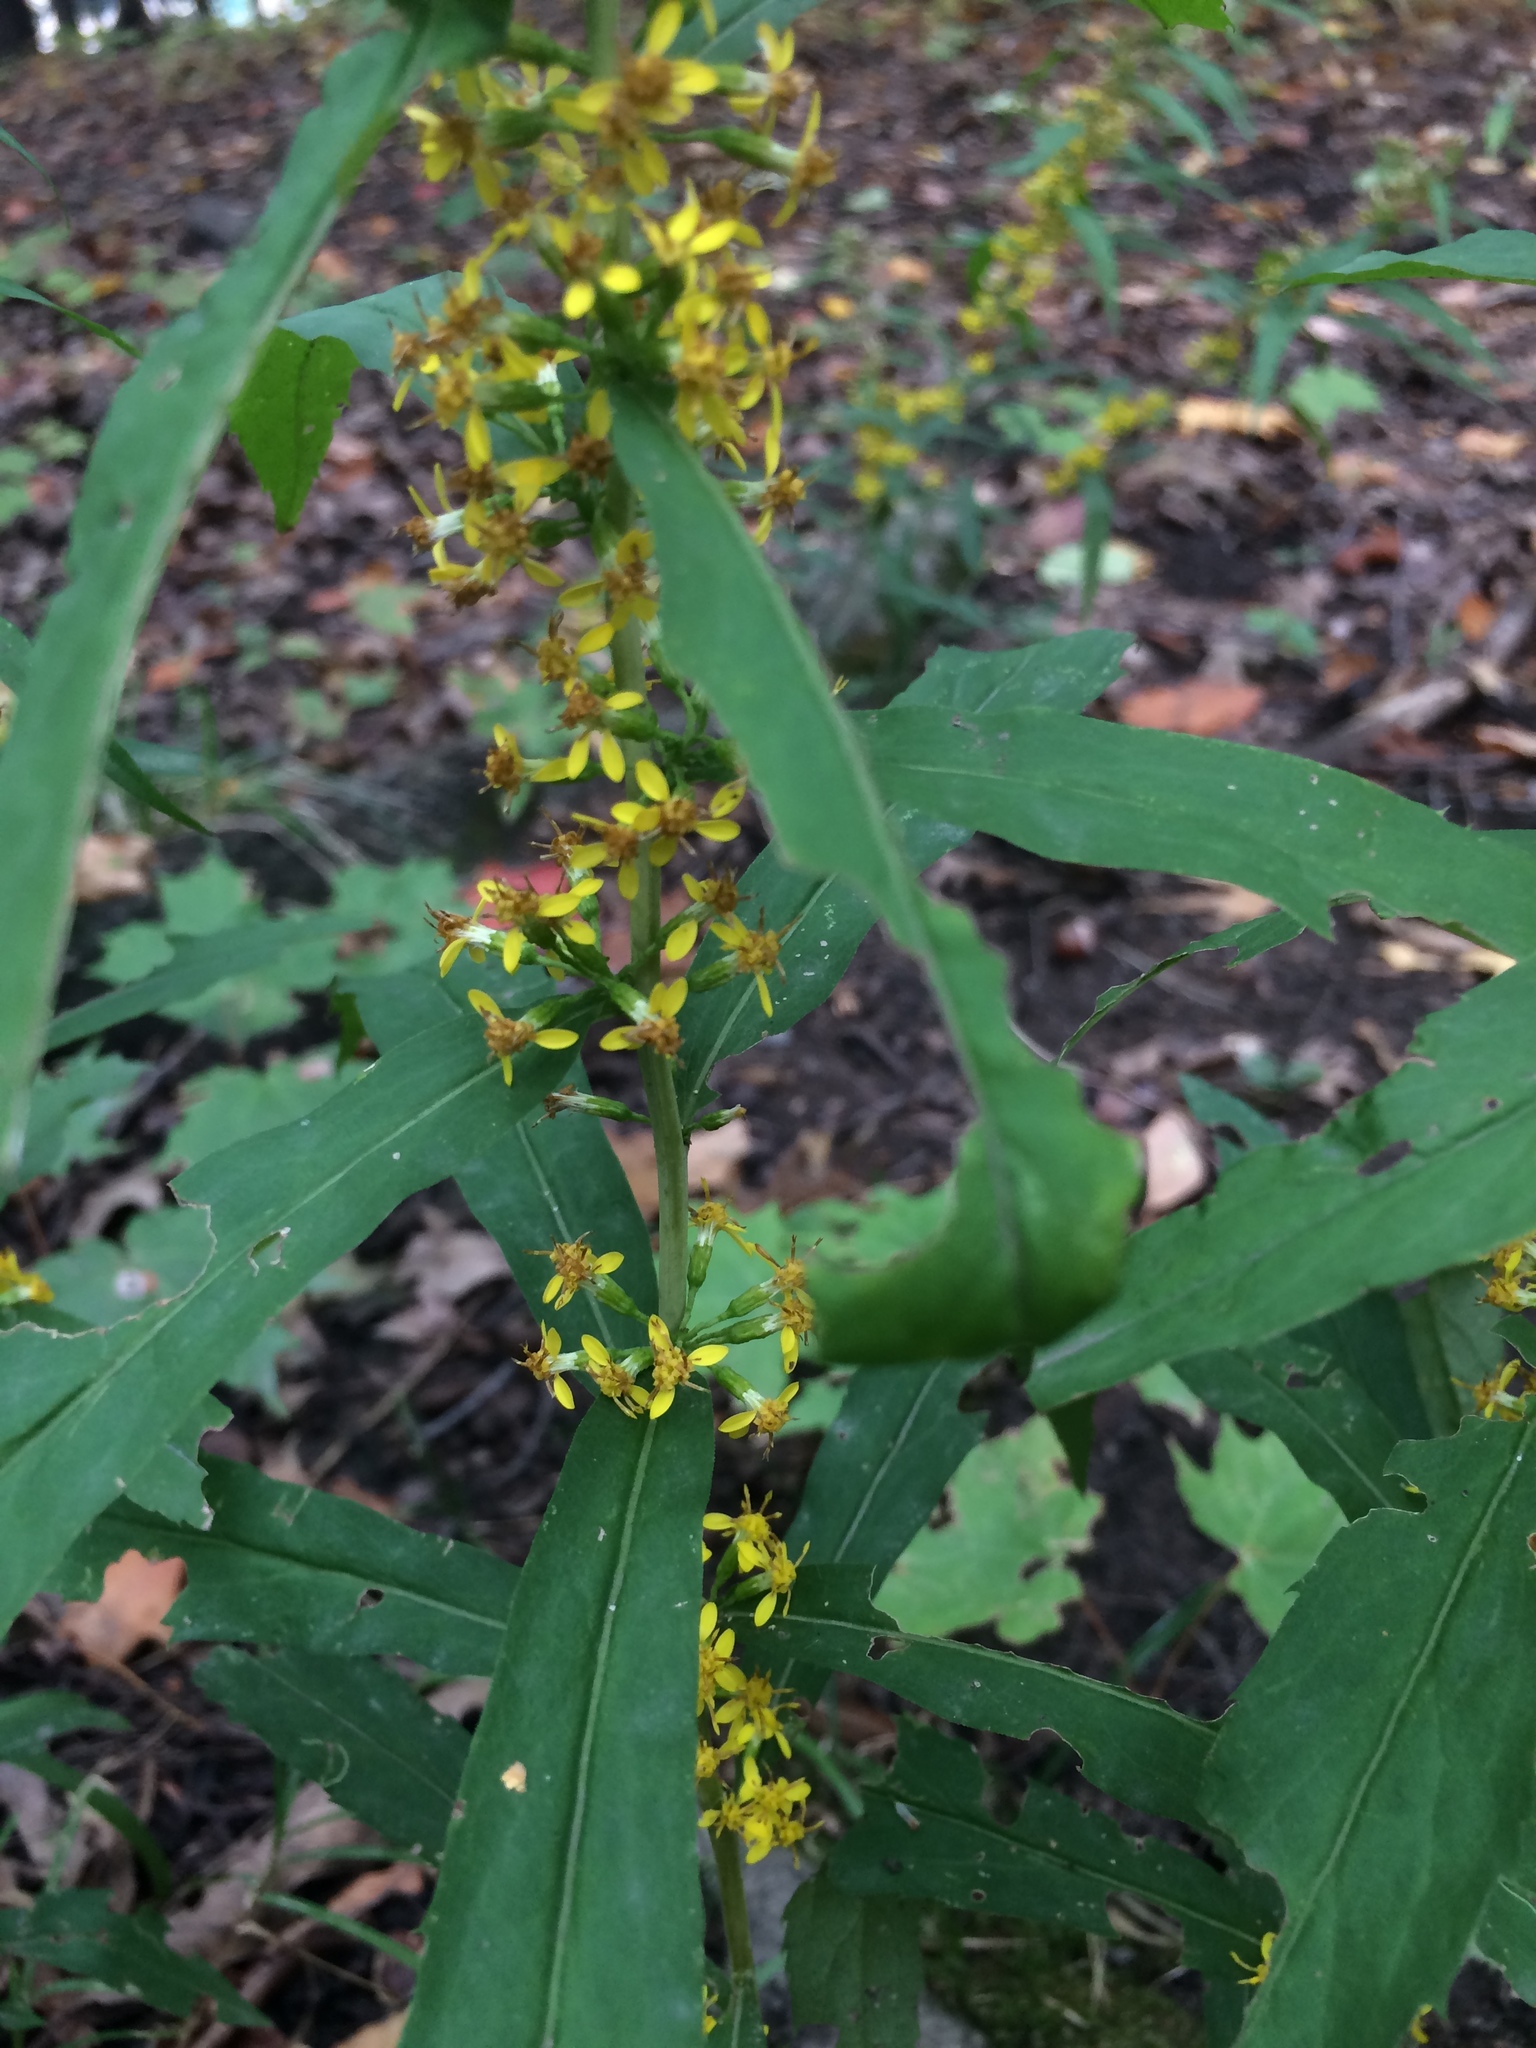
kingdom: Plantae
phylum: Tracheophyta
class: Magnoliopsida
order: Asterales
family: Asteraceae
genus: Solidago
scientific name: Solidago caesia
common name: Woodland goldenrod
